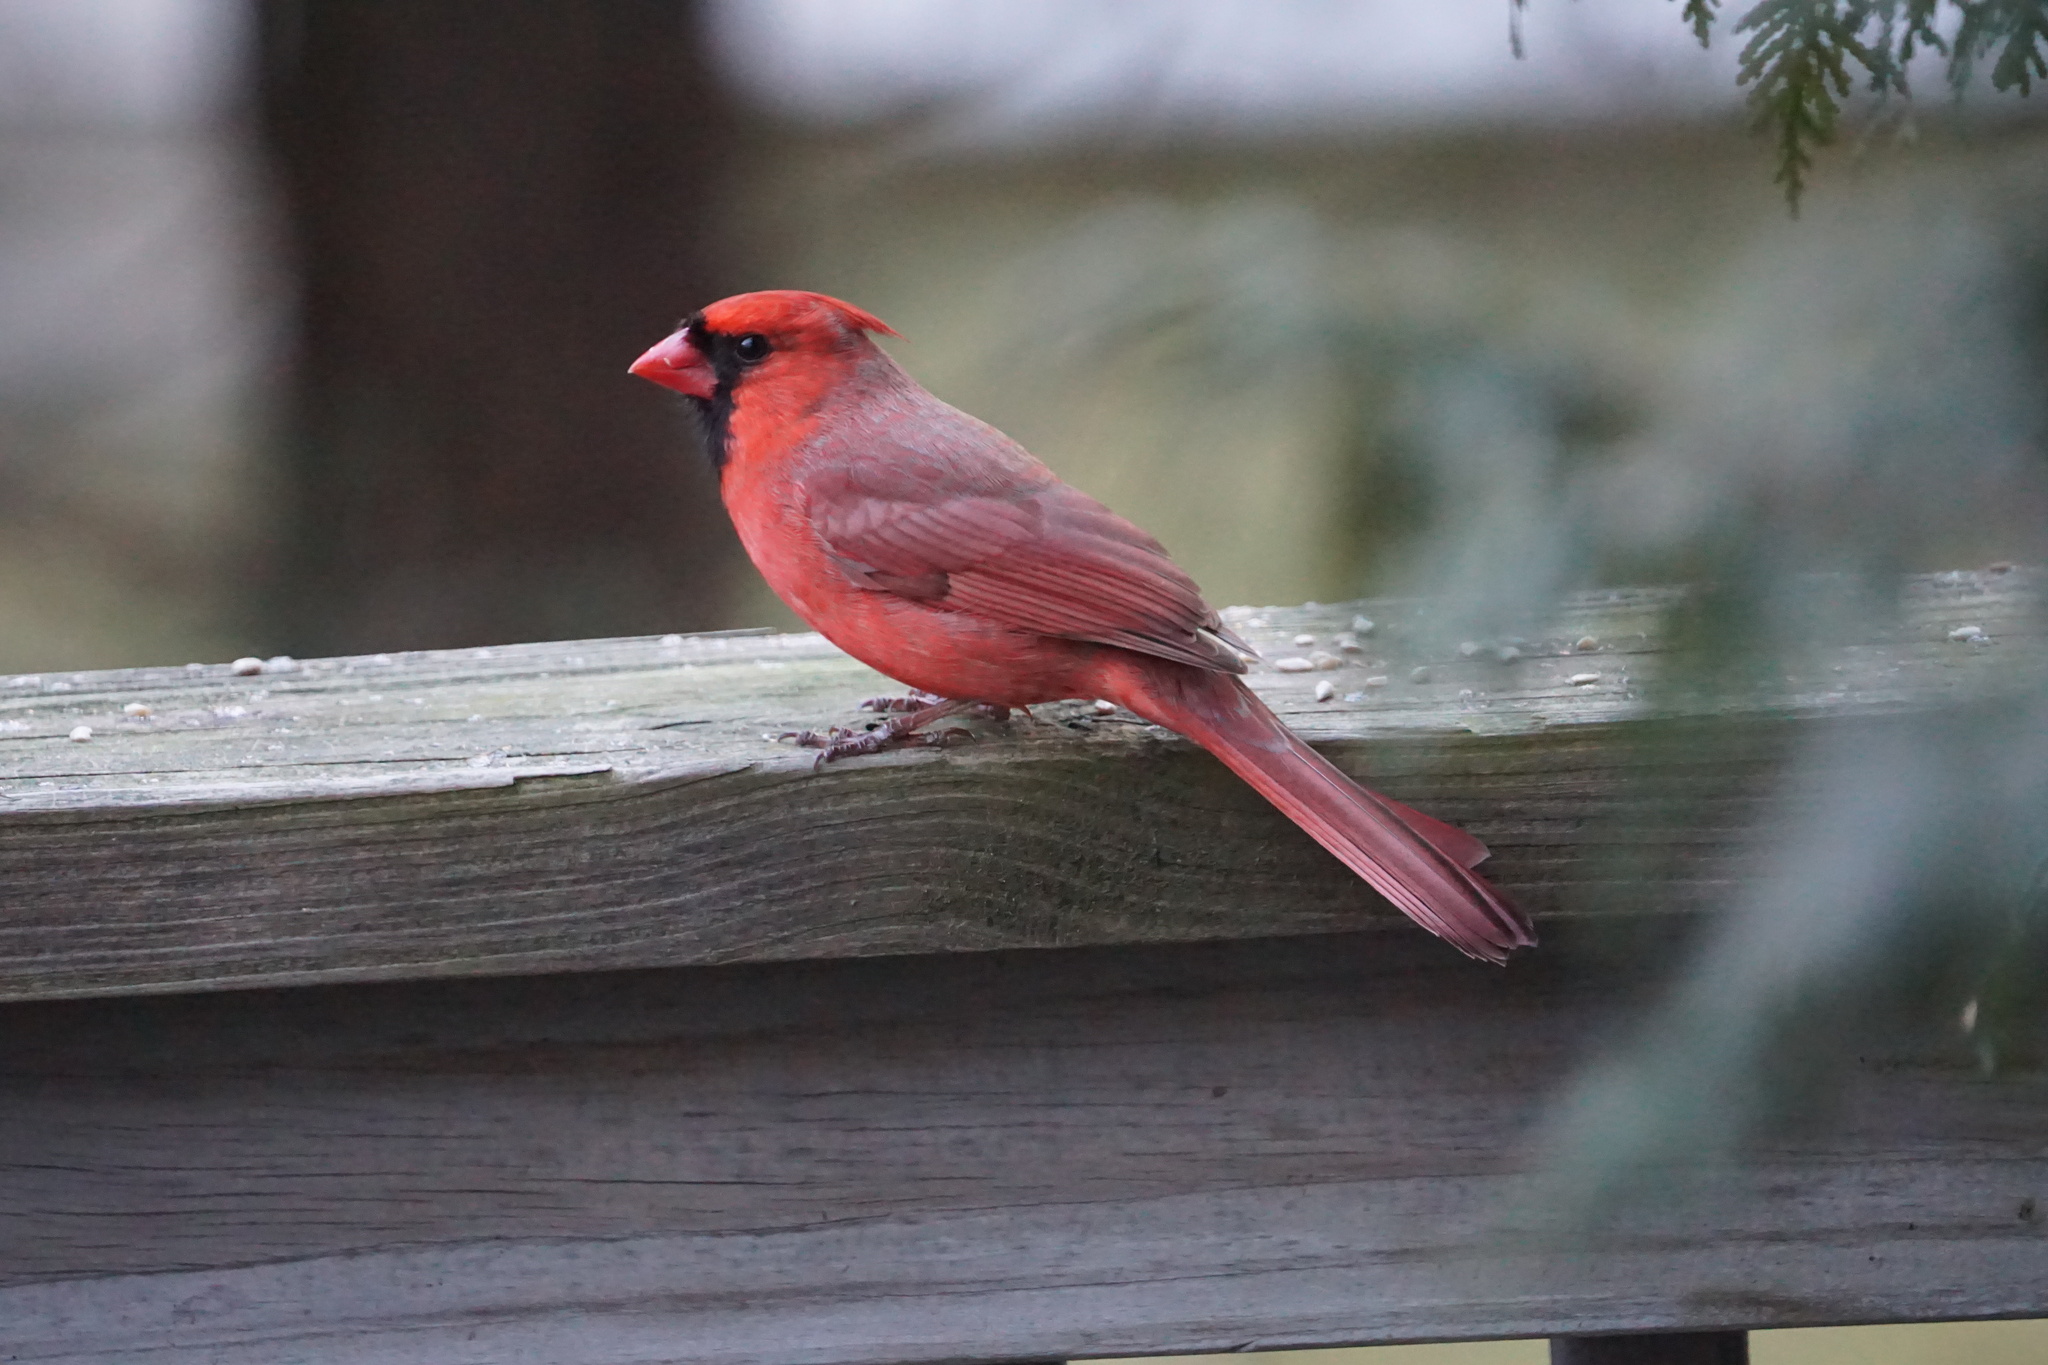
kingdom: Animalia
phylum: Chordata
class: Aves
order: Passeriformes
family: Cardinalidae
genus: Cardinalis
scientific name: Cardinalis cardinalis
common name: Northern cardinal
